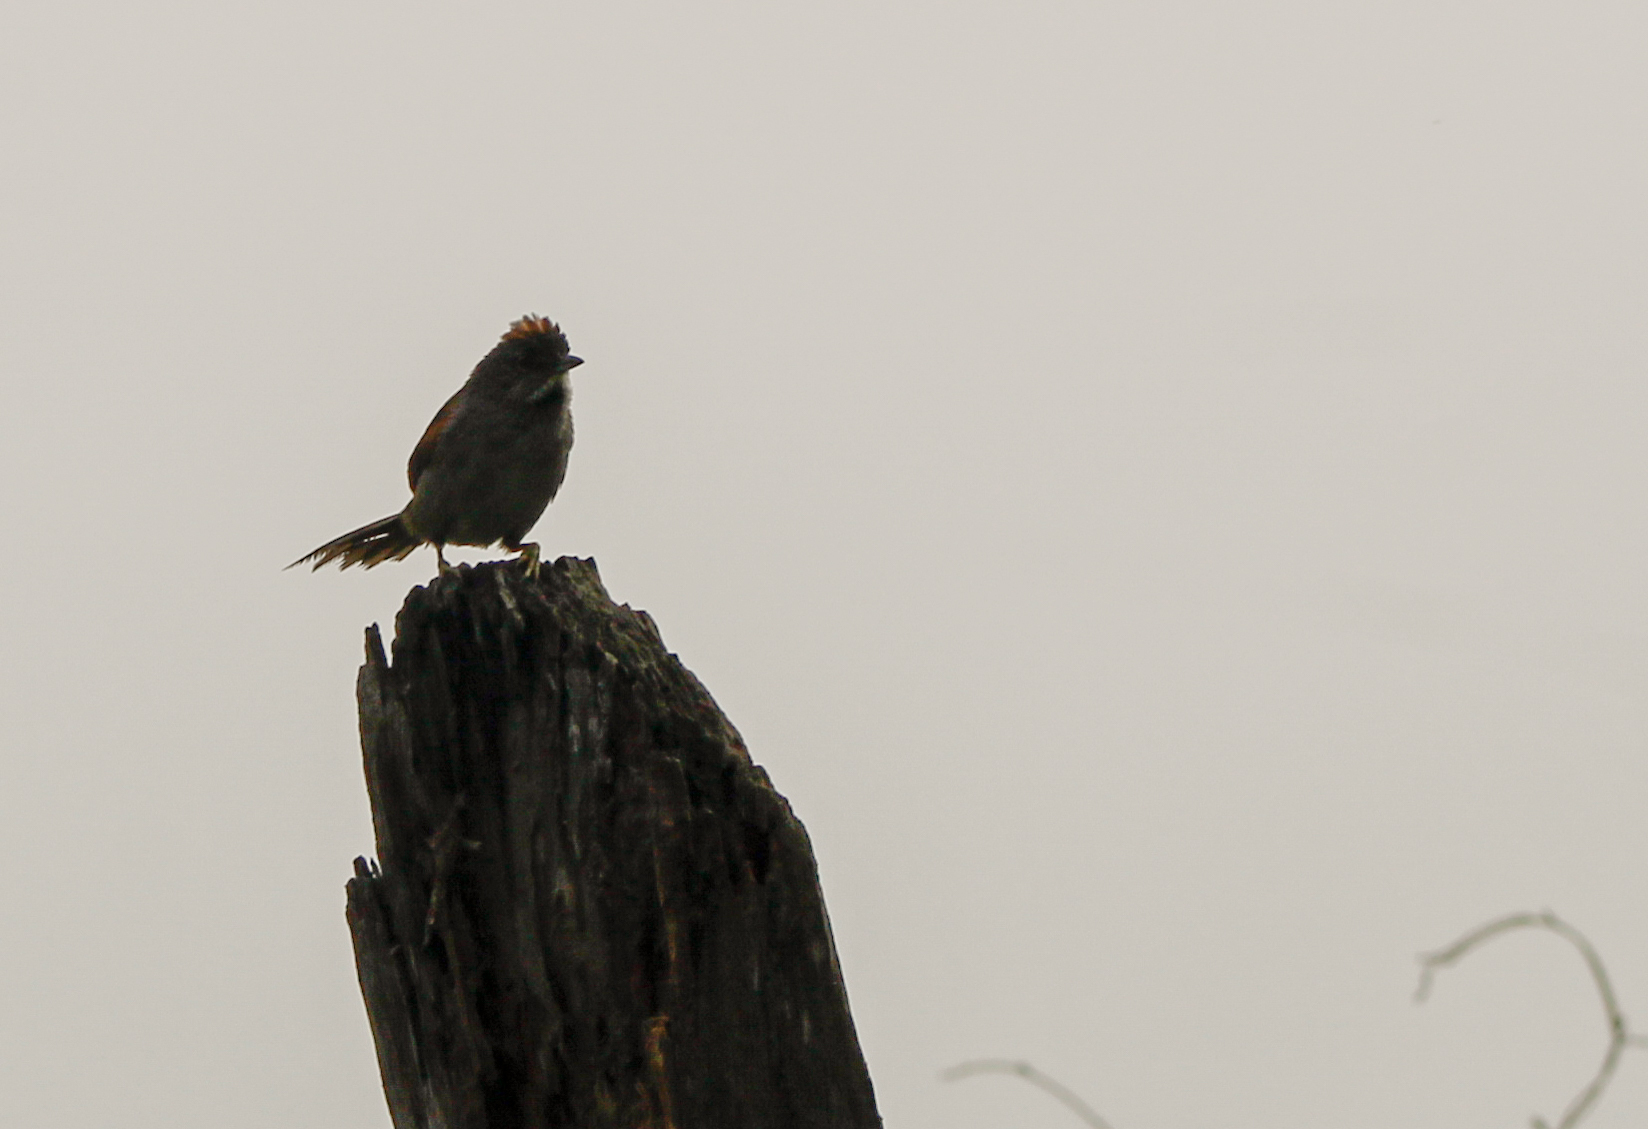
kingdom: Animalia
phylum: Chordata
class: Aves
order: Passeriformes
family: Furnariidae
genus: Synallaxis
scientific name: Synallaxis albescens
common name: Pale-breasted spinetail
